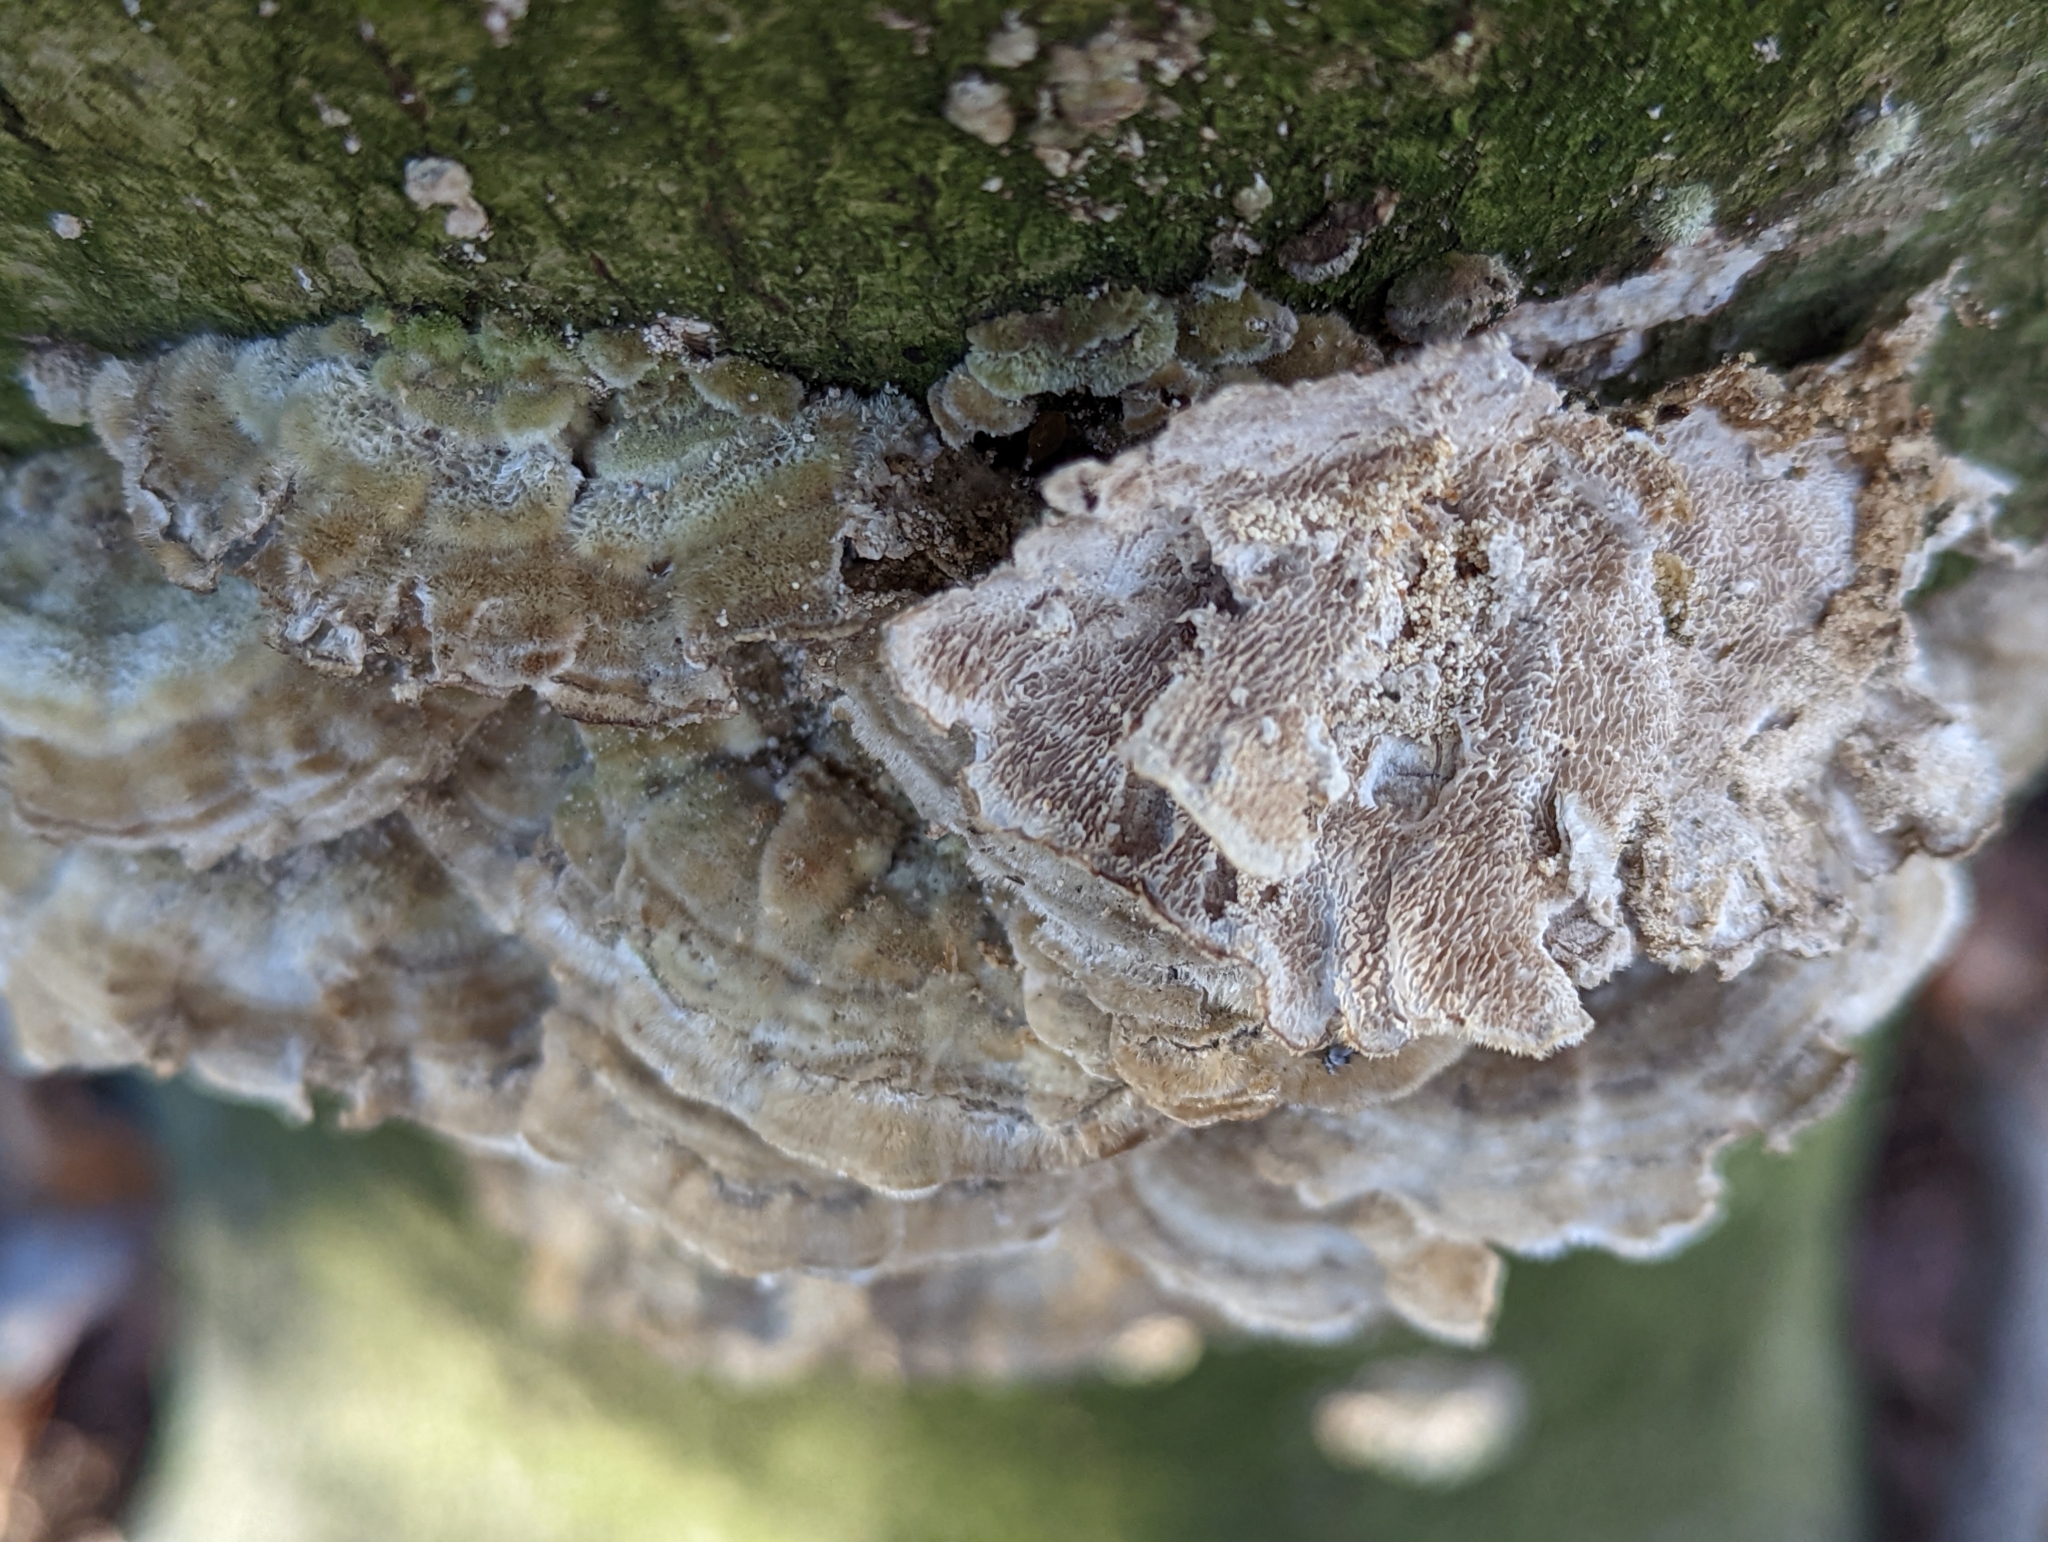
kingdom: Fungi
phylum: Basidiomycota
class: Agaricomycetes
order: Polyporales
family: Cerrenaceae
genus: Cerrena
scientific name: Cerrena unicolor
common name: Mossy maze polypore
